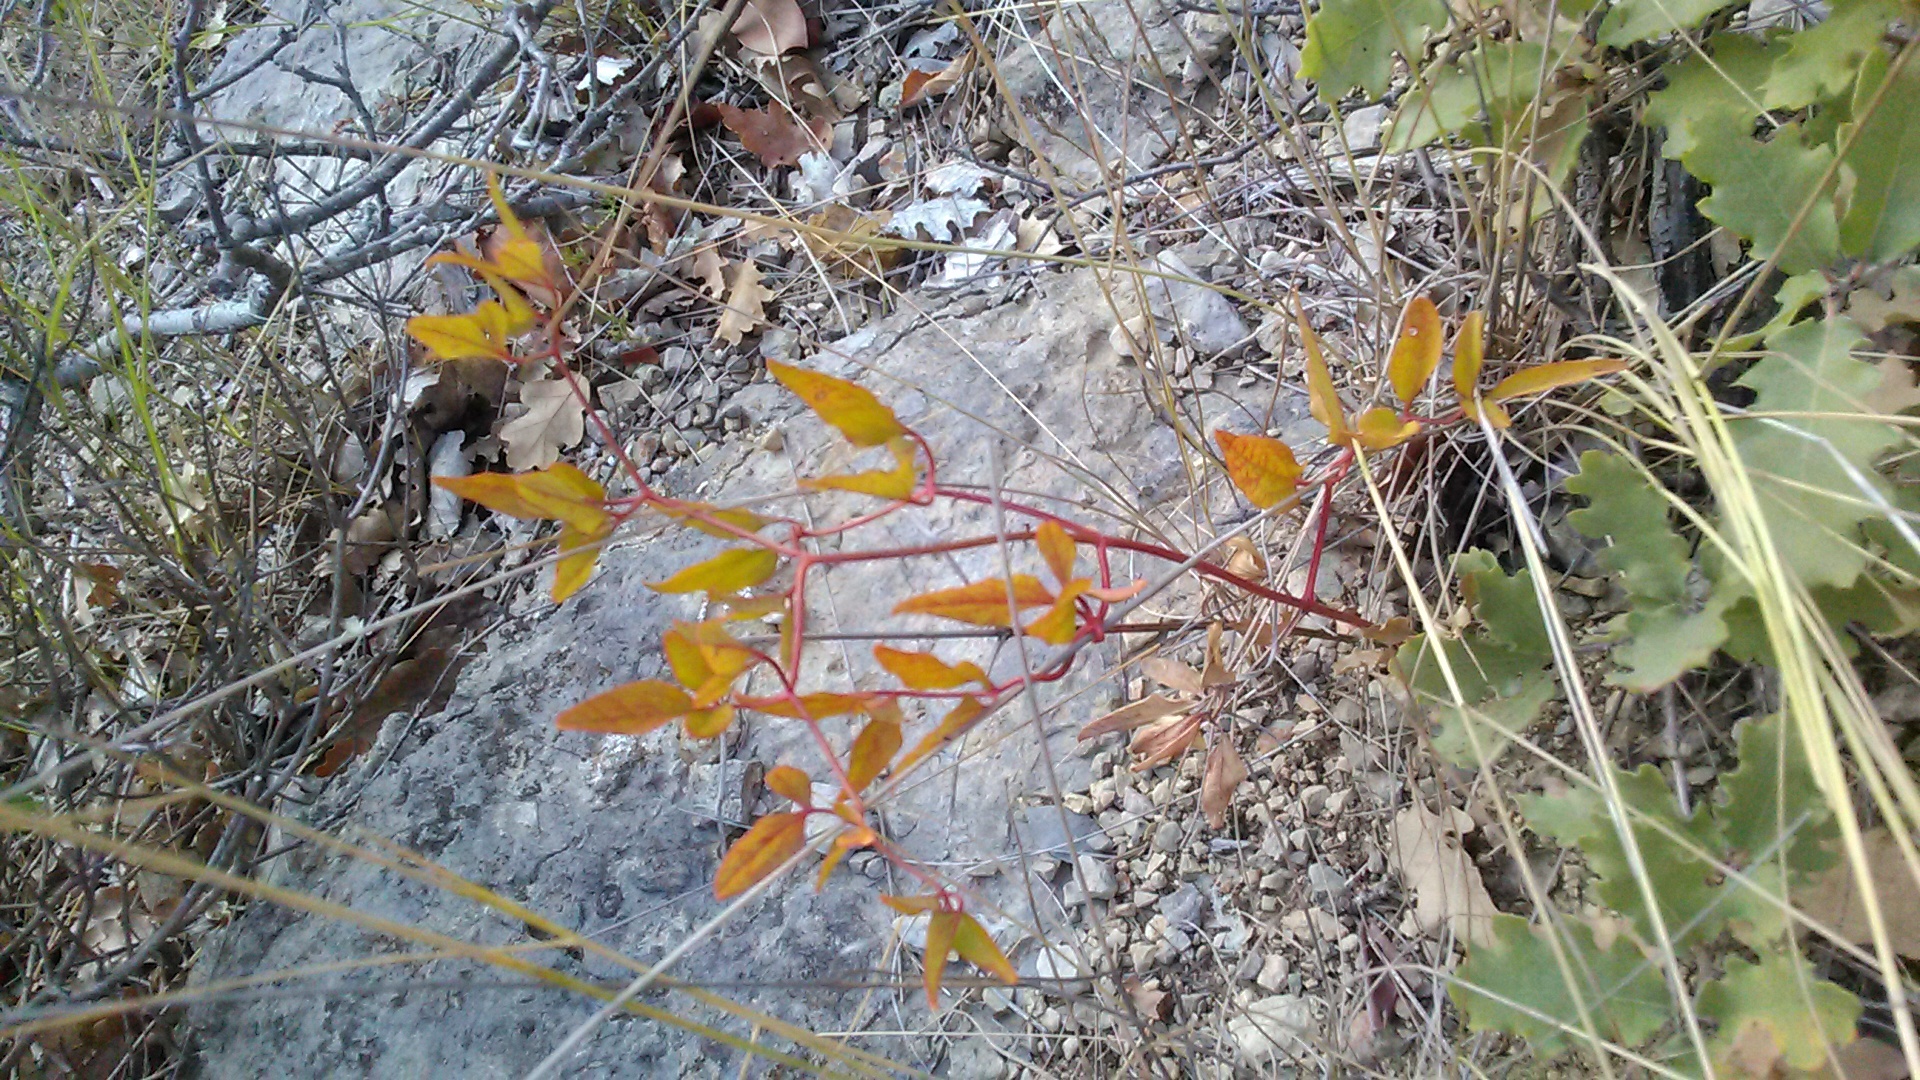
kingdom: Plantae
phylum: Tracheophyta
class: Magnoliopsida
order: Ranunculales
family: Ranunculaceae
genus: Clematis
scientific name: Clematis flammula
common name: Virgin's-bower
